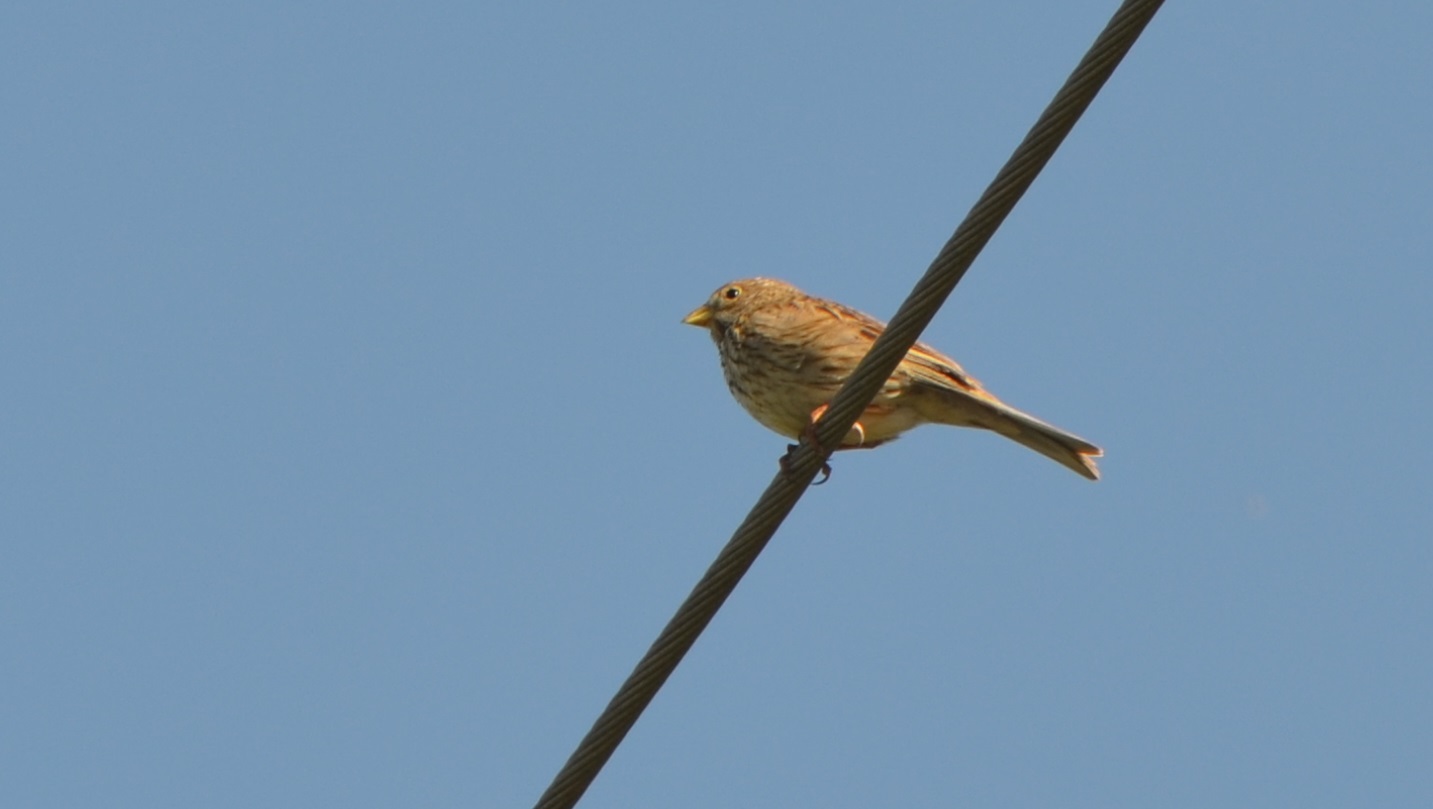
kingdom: Animalia
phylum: Chordata
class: Aves
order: Passeriformes
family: Emberizidae
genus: Emberiza
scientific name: Emberiza calandra
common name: Corn bunting
